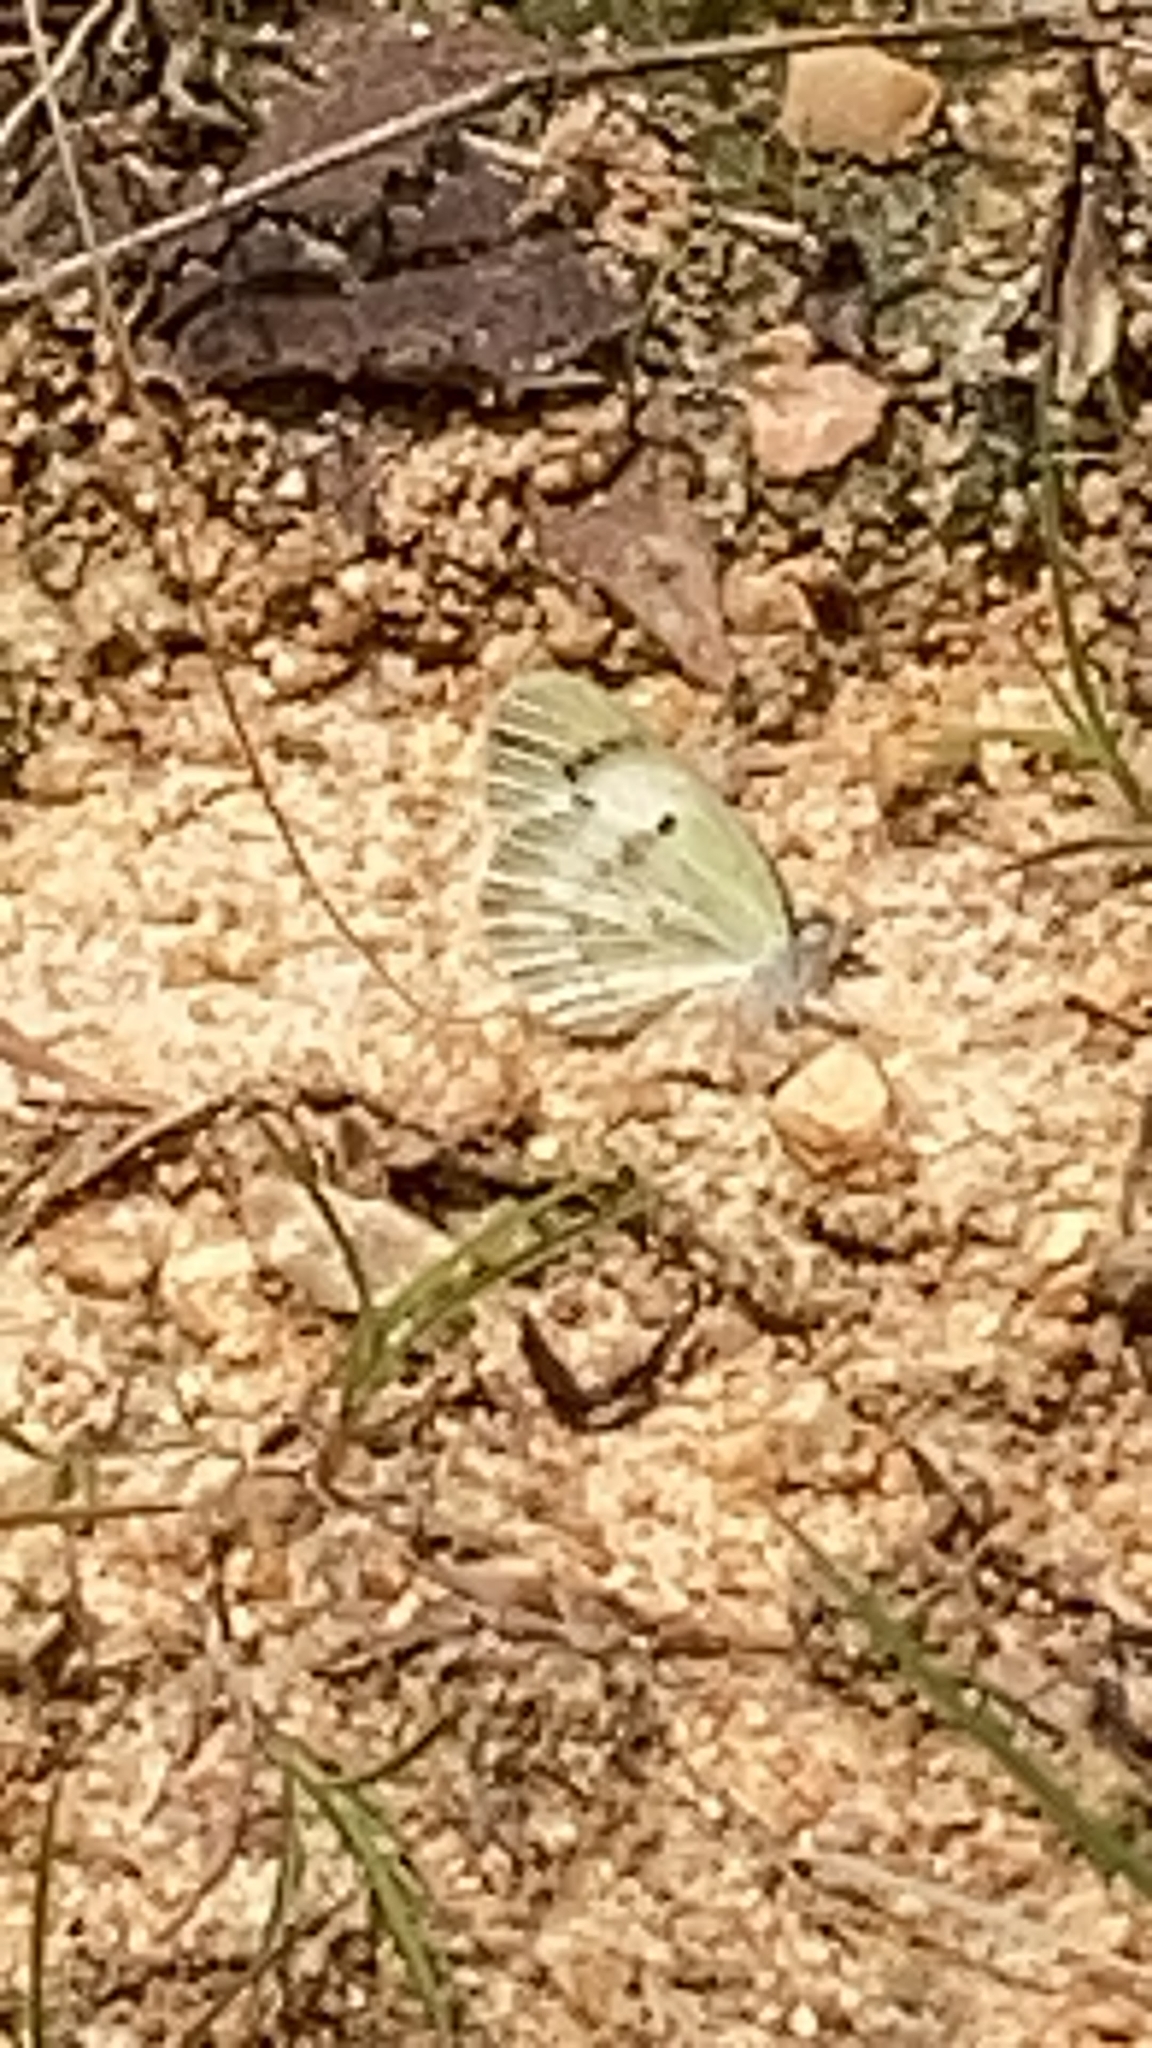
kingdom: Animalia
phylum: Arthropoda
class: Insecta
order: Lepidoptera
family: Pieridae
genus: Colotis
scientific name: Colotis etrida
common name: Little orange tip
